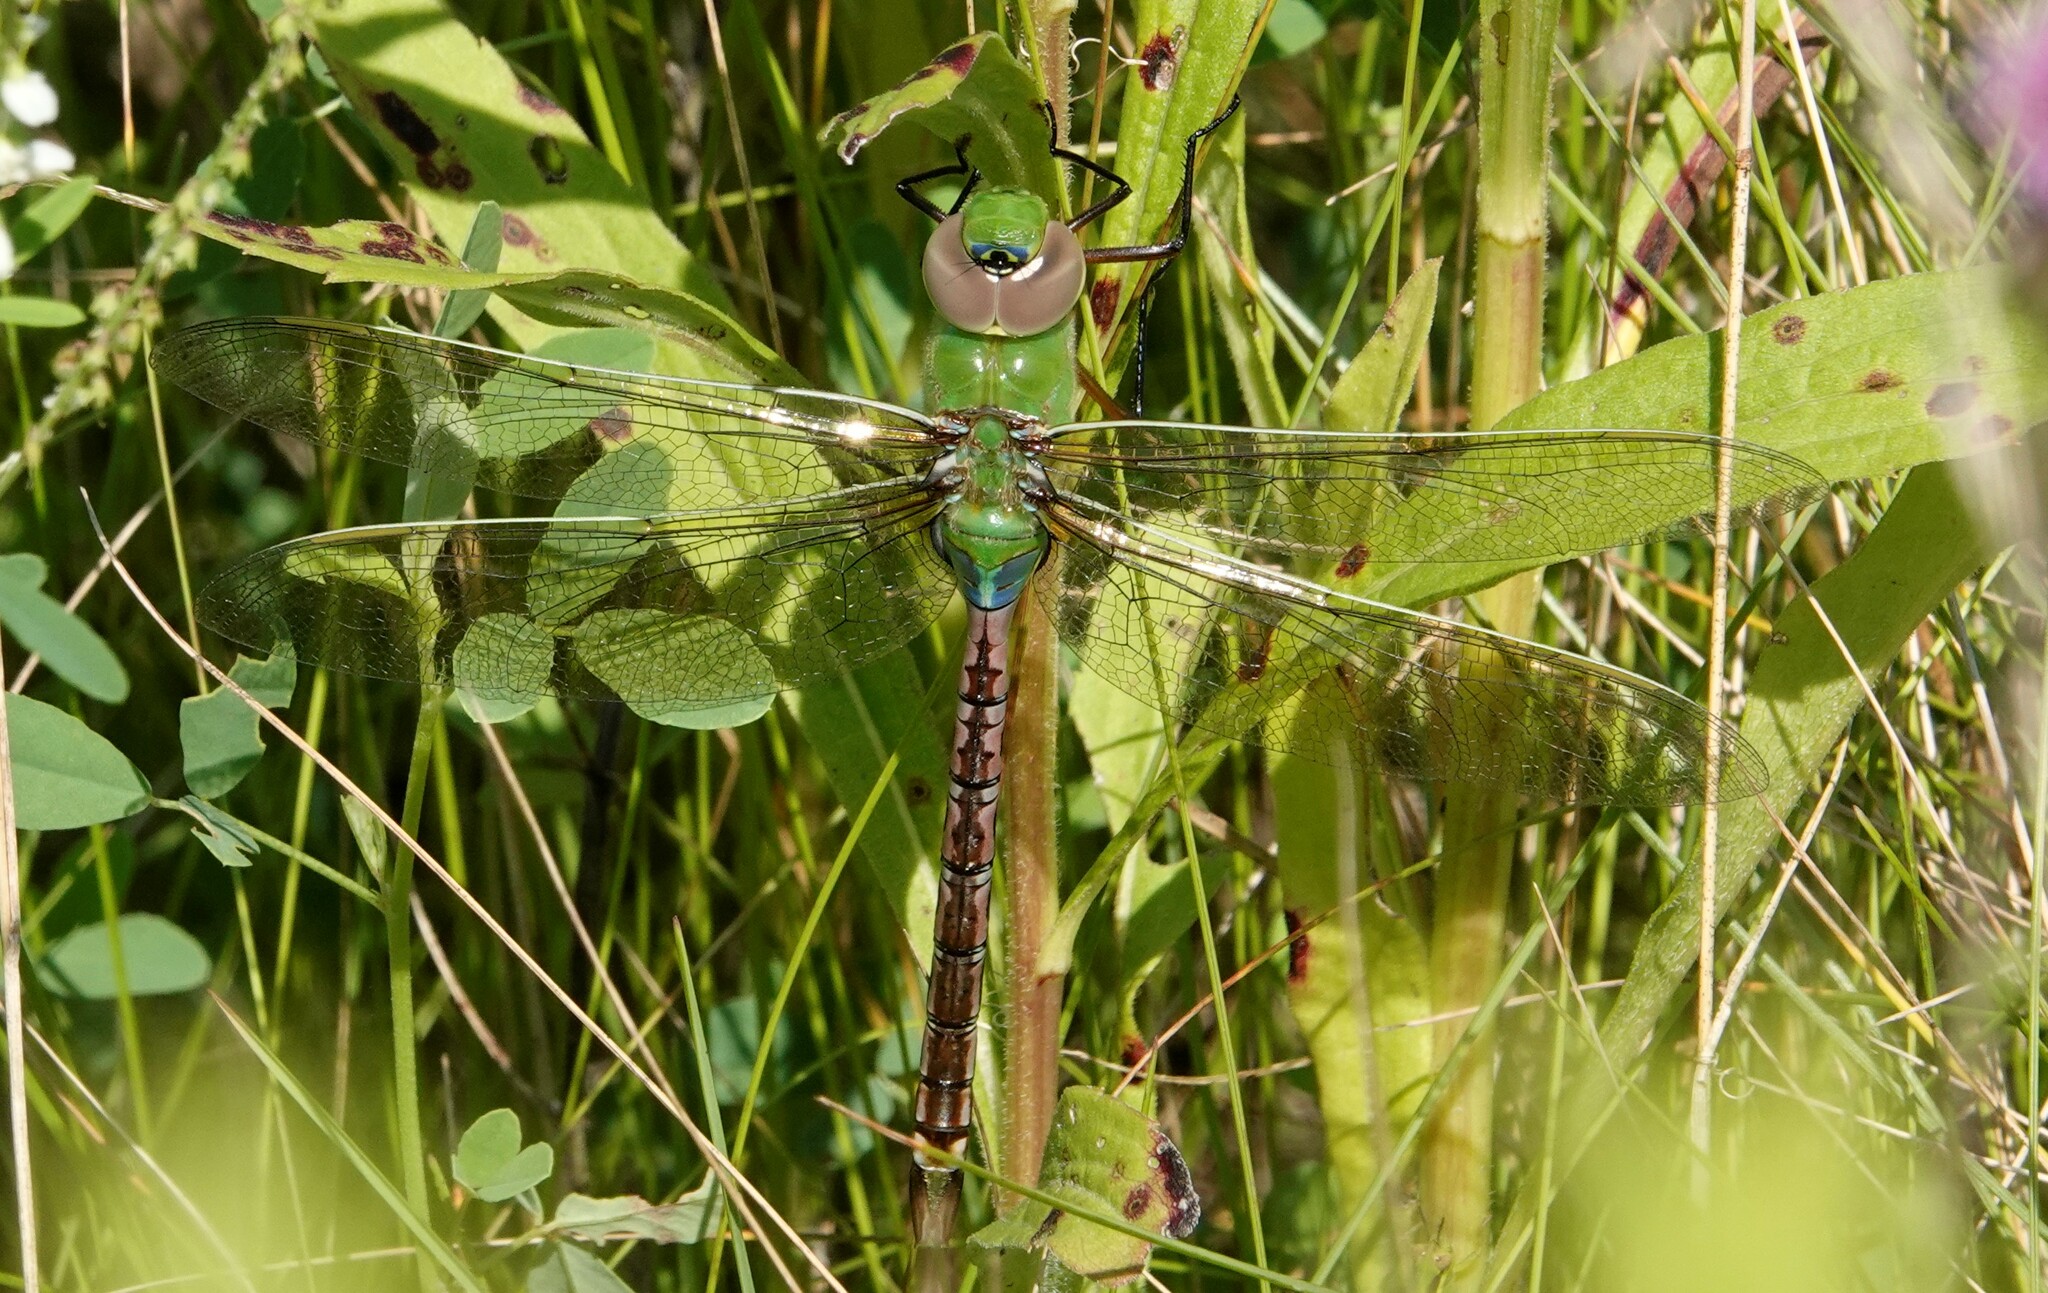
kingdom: Animalia
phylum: Arthropoda
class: Insecta
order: Odonata
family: Aeshnidae
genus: Anax
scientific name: Anax junius
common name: Common green darner
